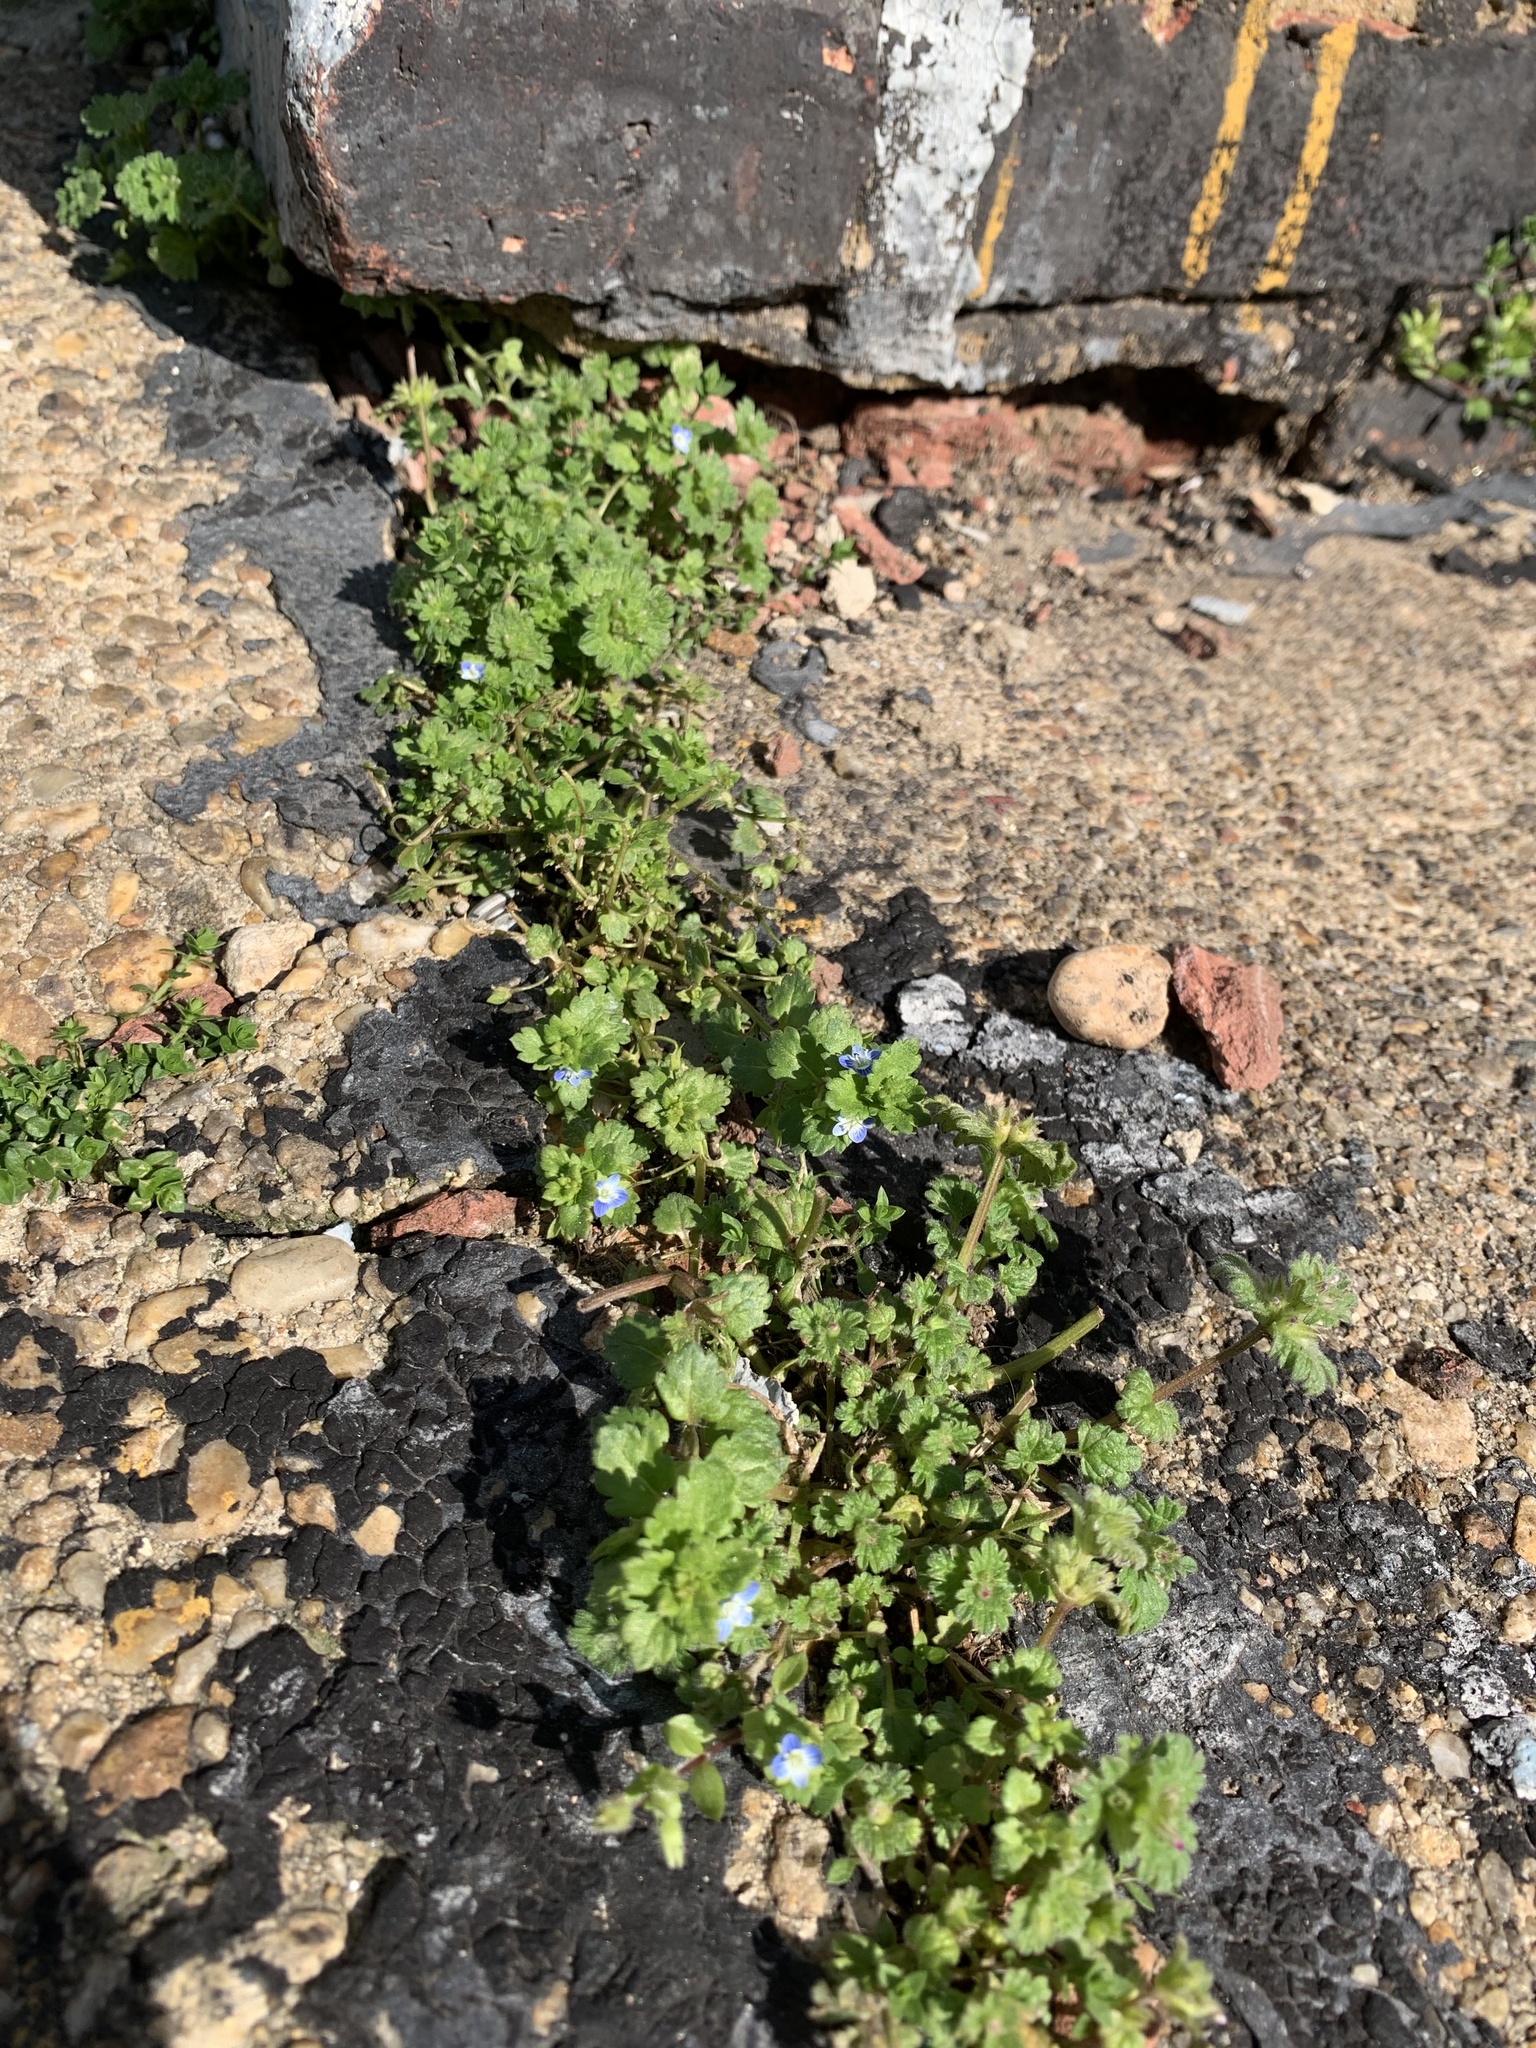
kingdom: Plantae
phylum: Tracheophyta
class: Magnoliopsida
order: Lamiales
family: Plantaginaceae
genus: Veronica
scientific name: Veronica polita
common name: Grey field-speedwell
